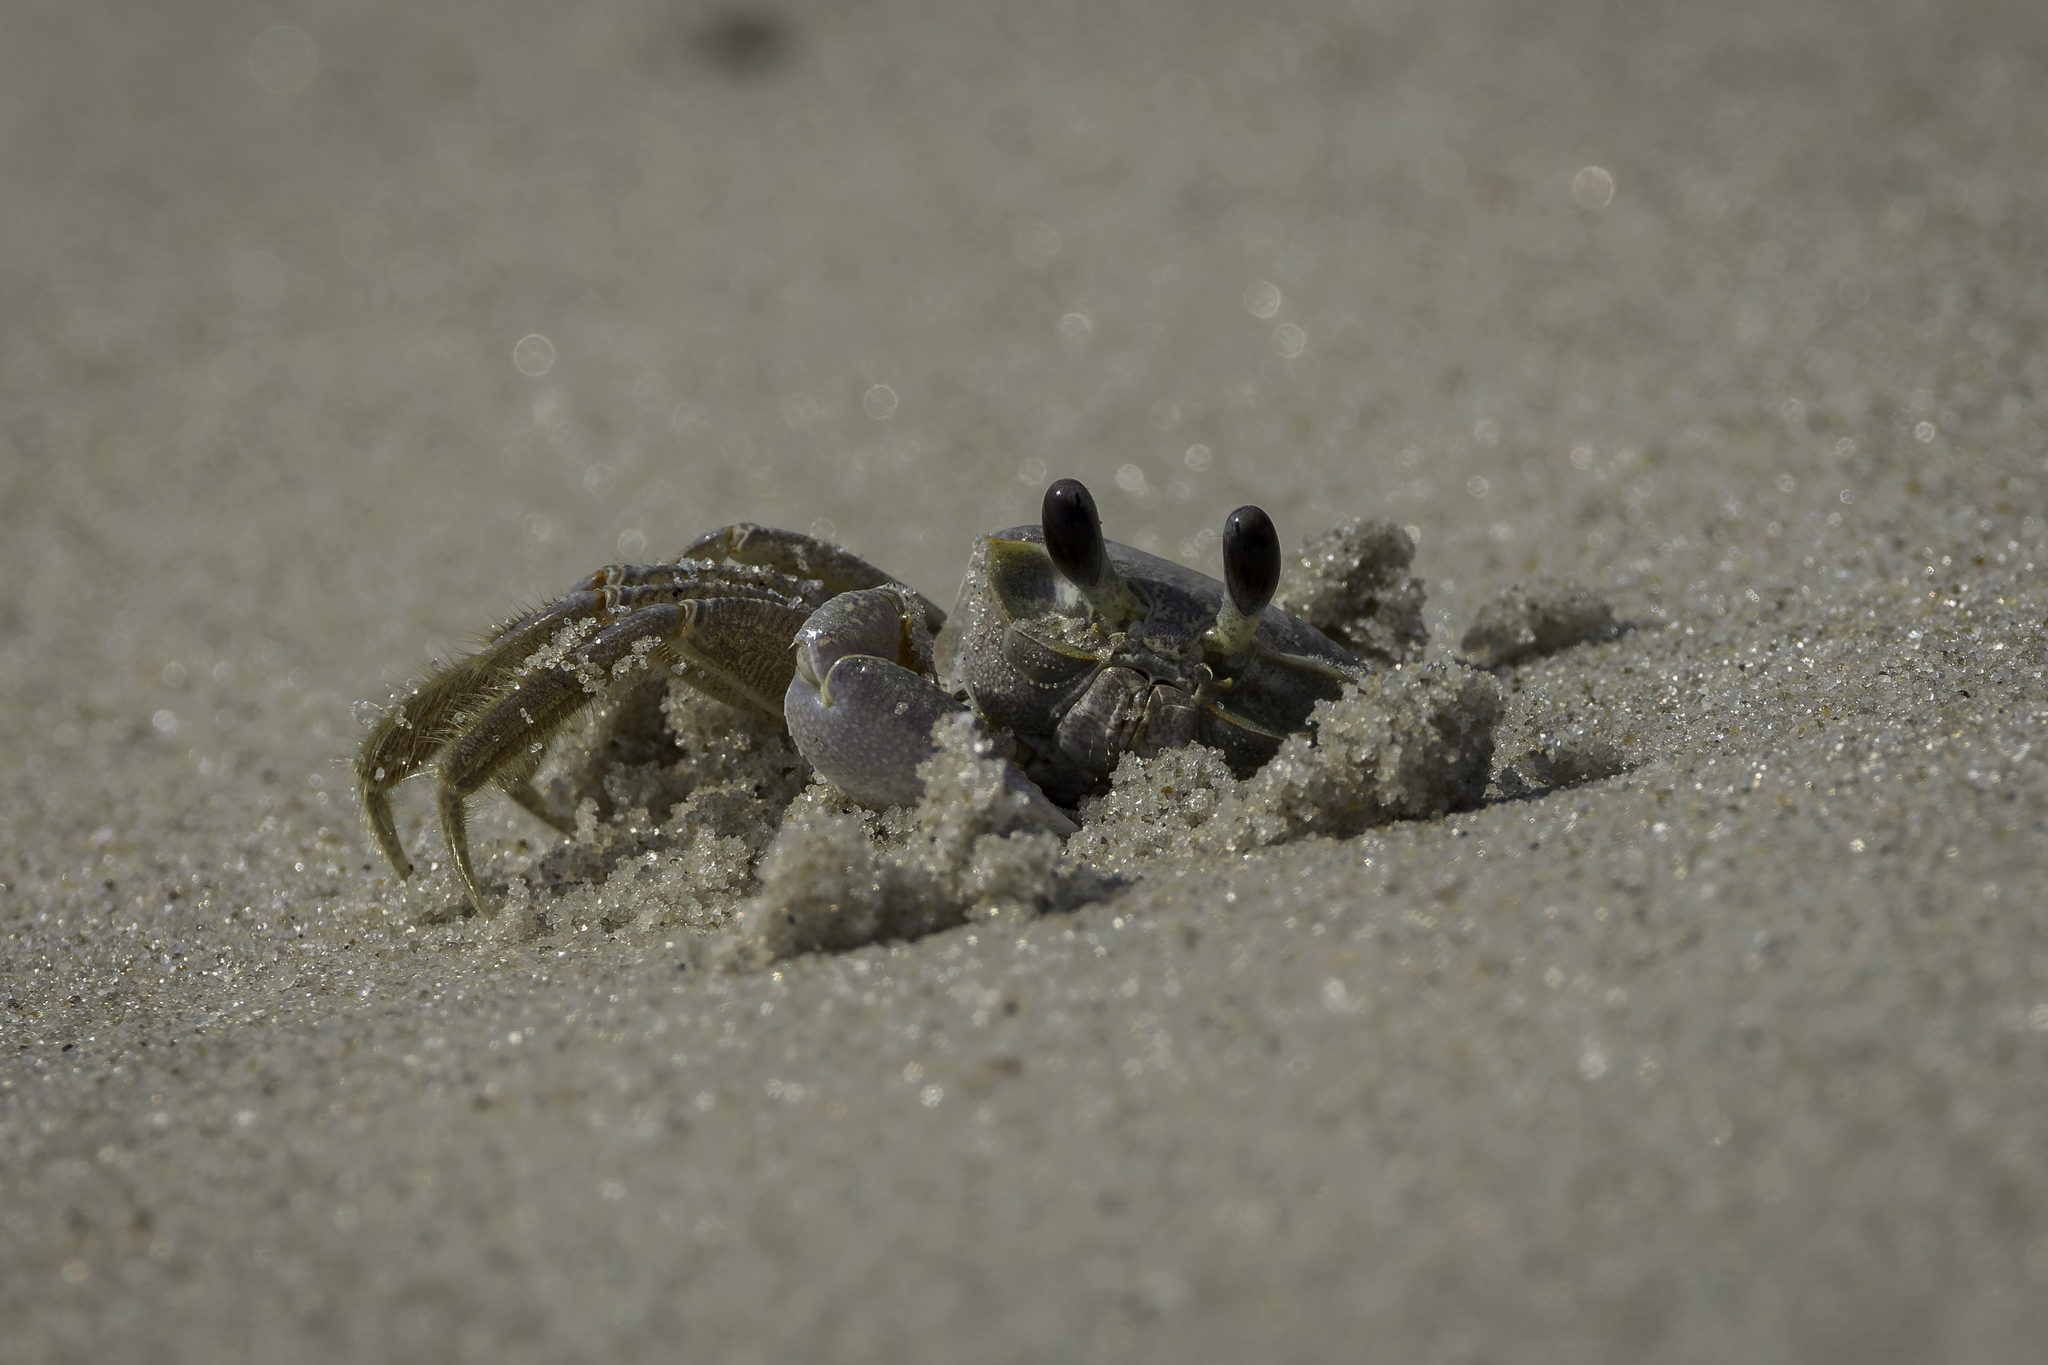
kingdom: Animalia
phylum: Arthropoda
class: Malacostraca
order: Decapoda
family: Ocypodidae
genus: Ocypode
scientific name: Ocypode quadrata
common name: Ghost crab
